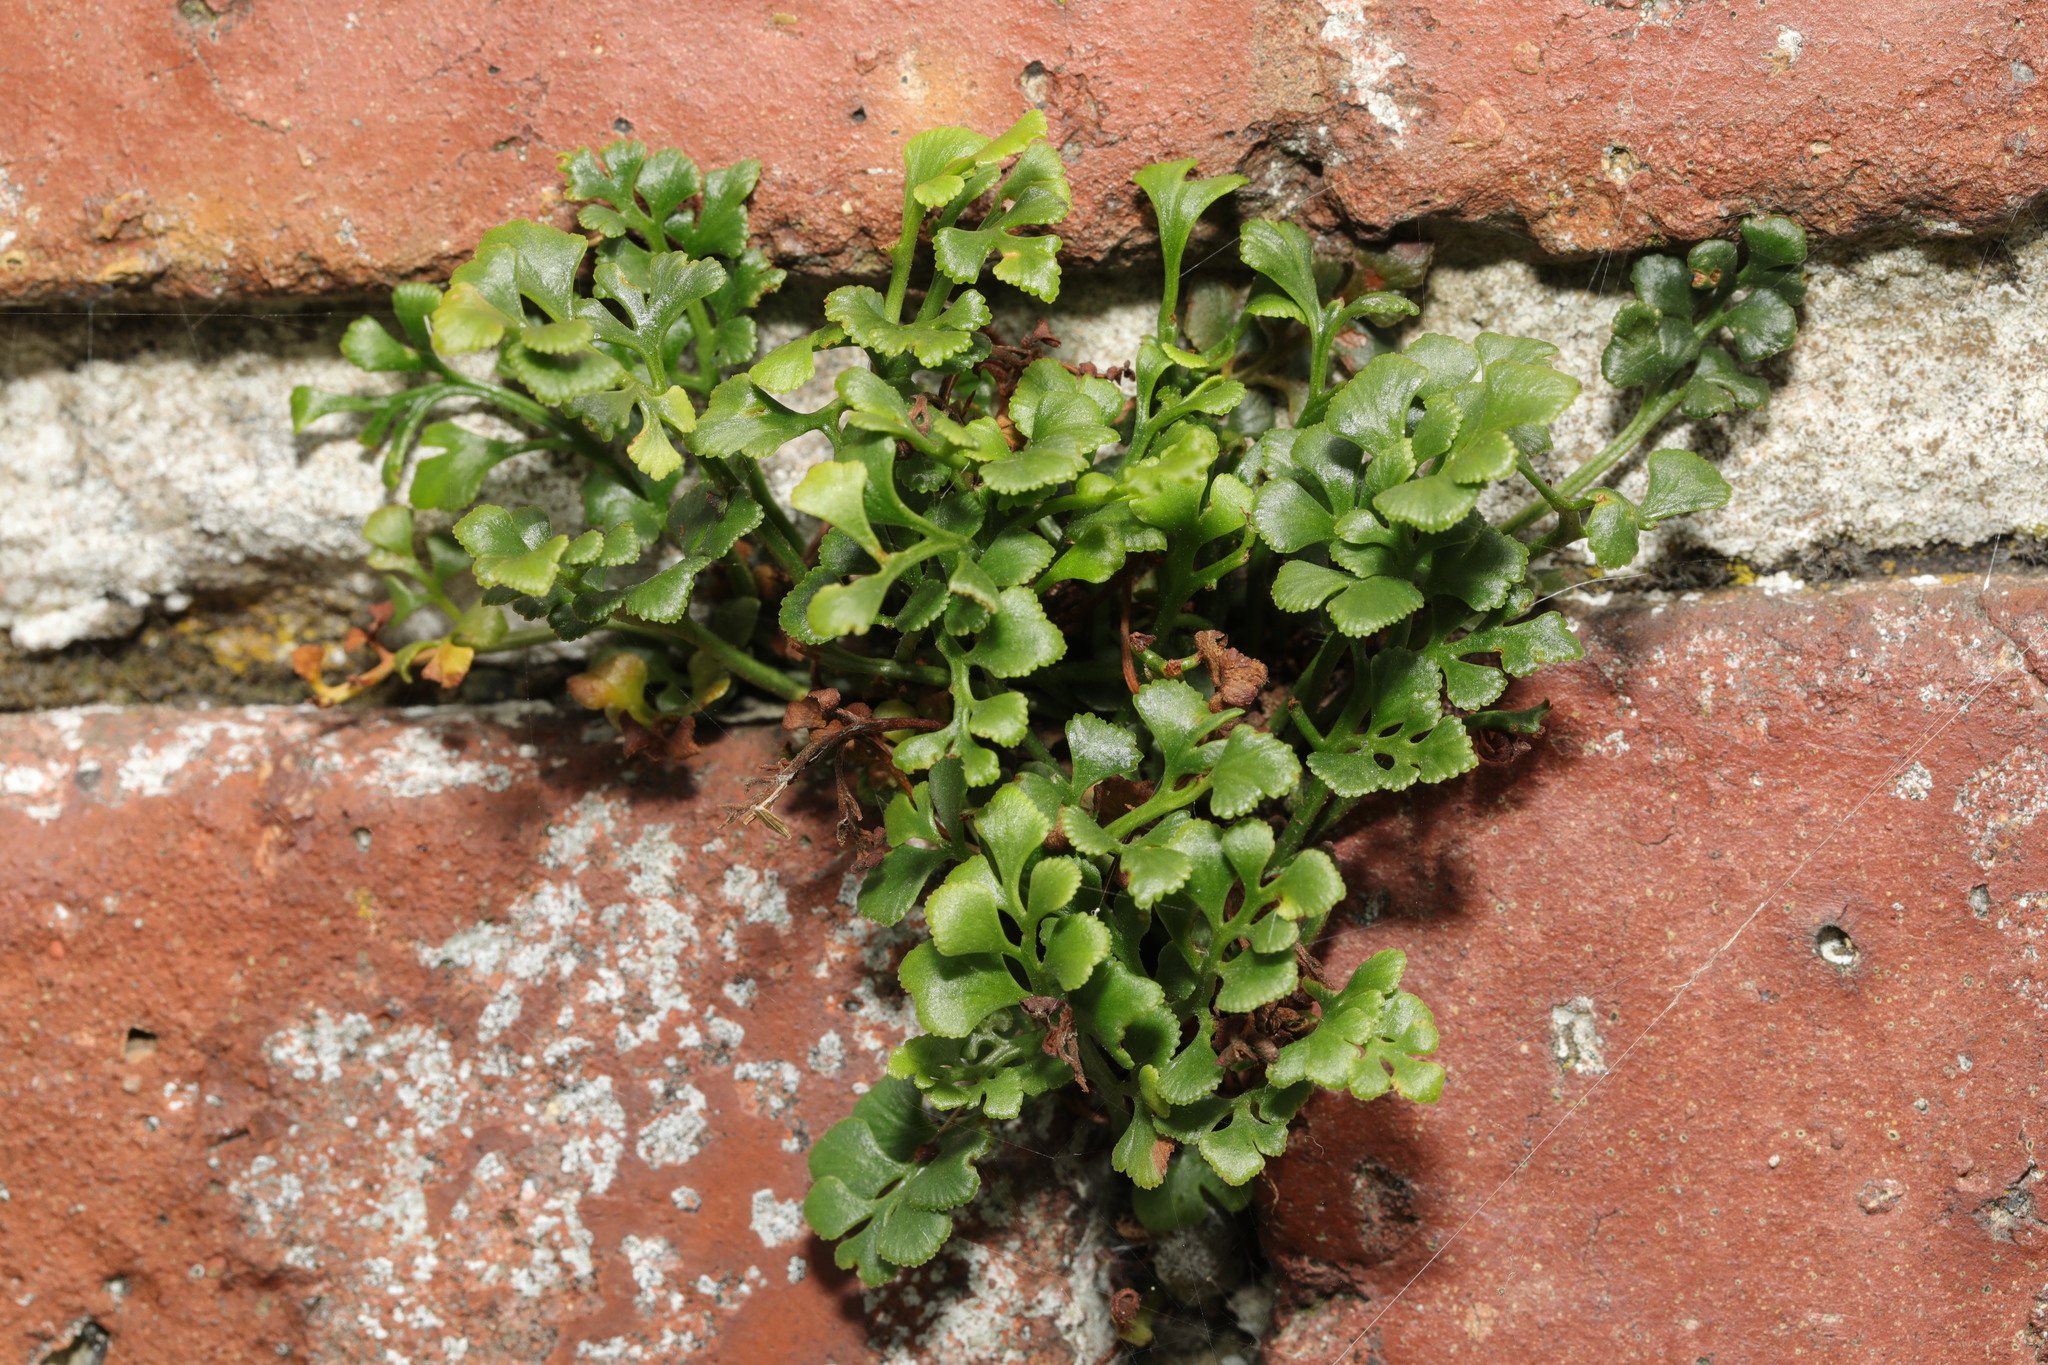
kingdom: Plantae
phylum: Tracheophyta
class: Polypodiopsida
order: Polypodiales
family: Aspleniaceae
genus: Asplenium
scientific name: Asplenium ruta-muraria
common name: Wall-rue
